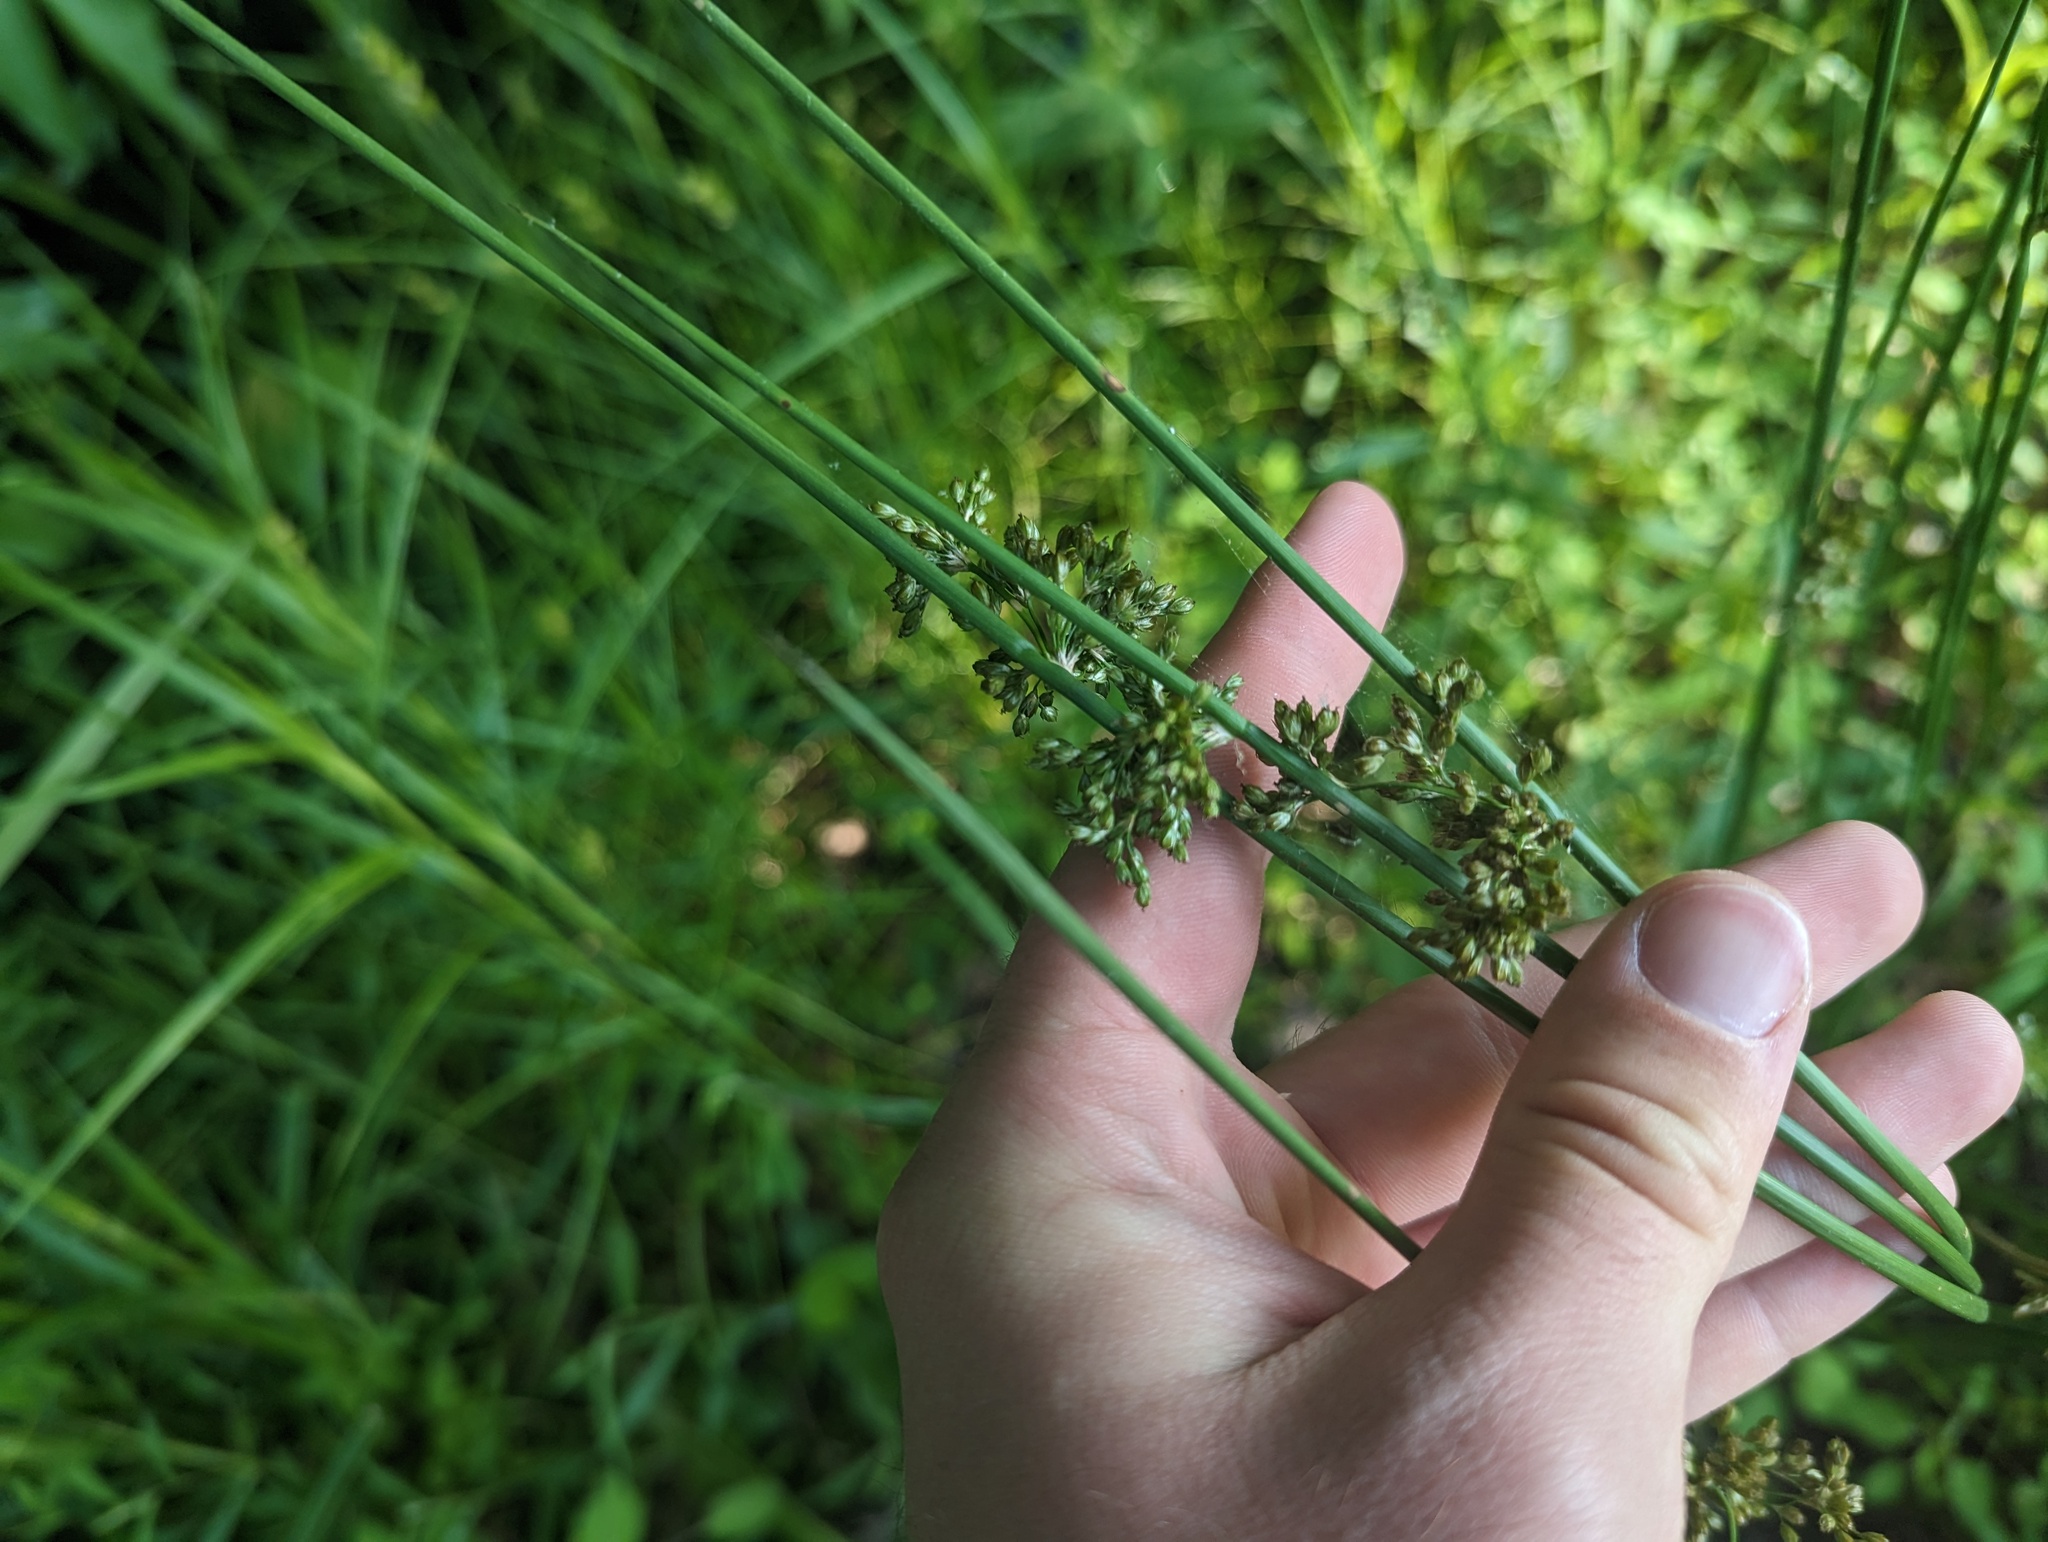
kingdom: Plantae
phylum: Tracheophyta
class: Liliopsida
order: Poales
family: Juncaceae
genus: Juncus
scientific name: Juncus effusus
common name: Soft rush
